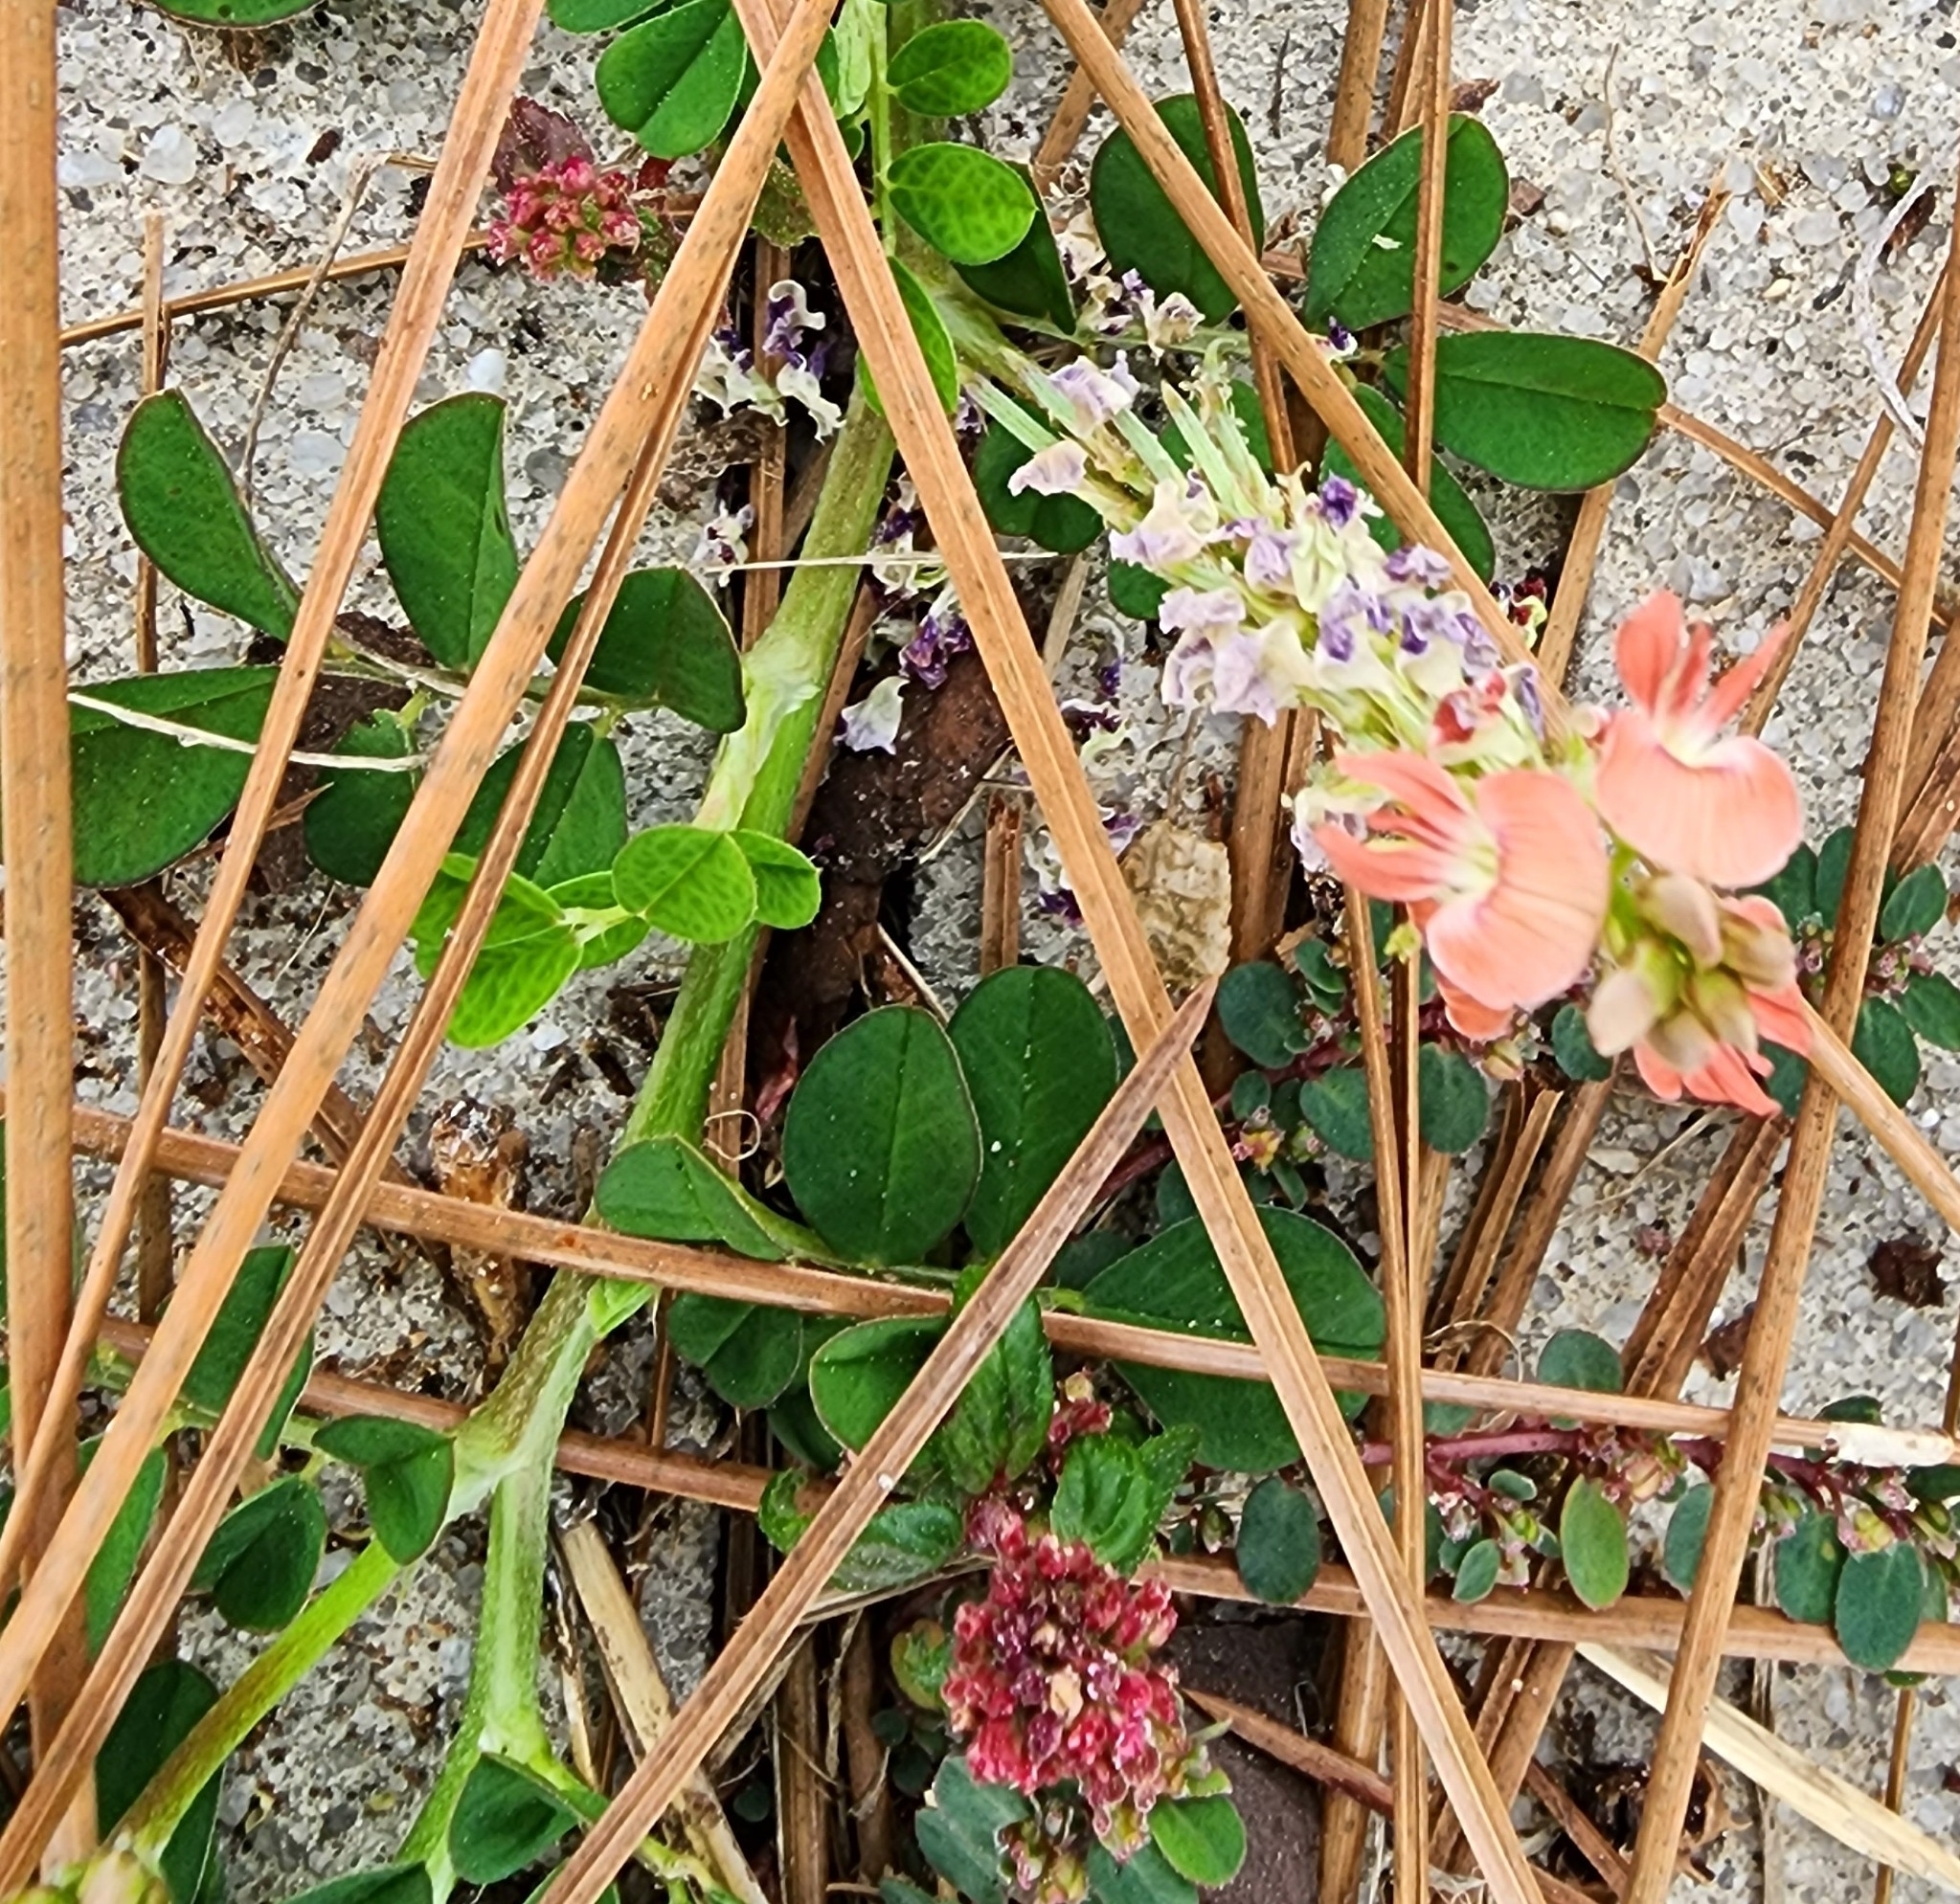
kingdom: Plantae
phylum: Tracheophyta
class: Magnoliopsida
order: Fabales
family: Fabaceae
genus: Indigofera
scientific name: Indigofera spicata
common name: Creeping indigo
